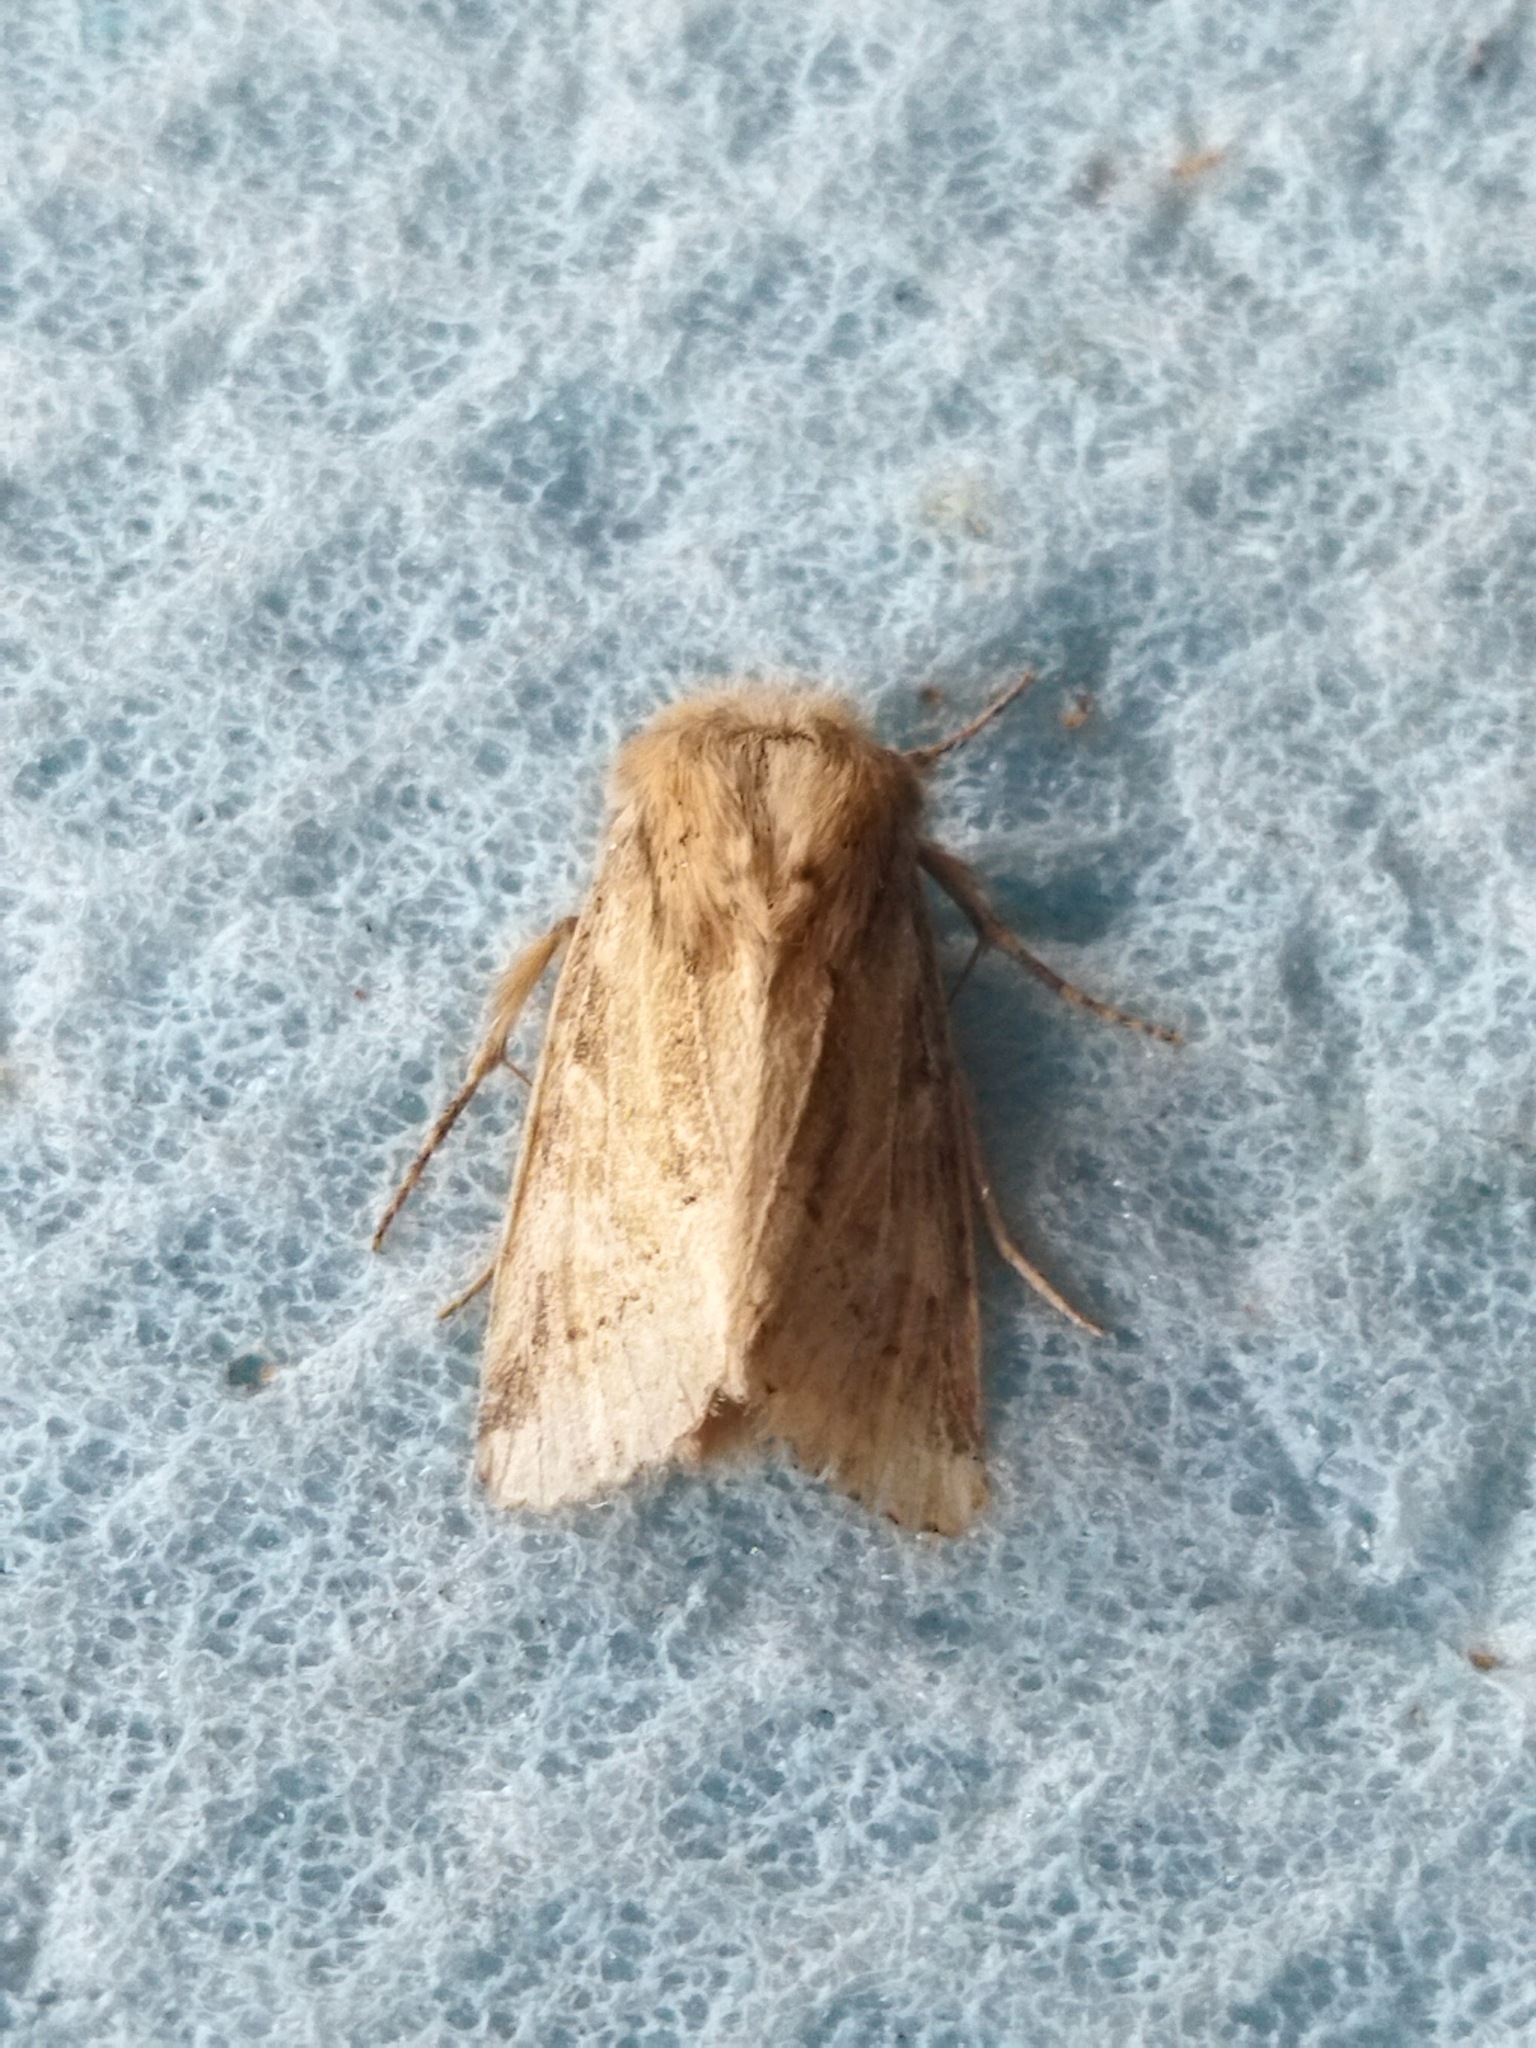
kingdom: Animalia
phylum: Arthropoda
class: Insecta
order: Lepidoptera
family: Noctuidae
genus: Luperina
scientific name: Luperina dumerilii
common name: Dumeril's rustic
